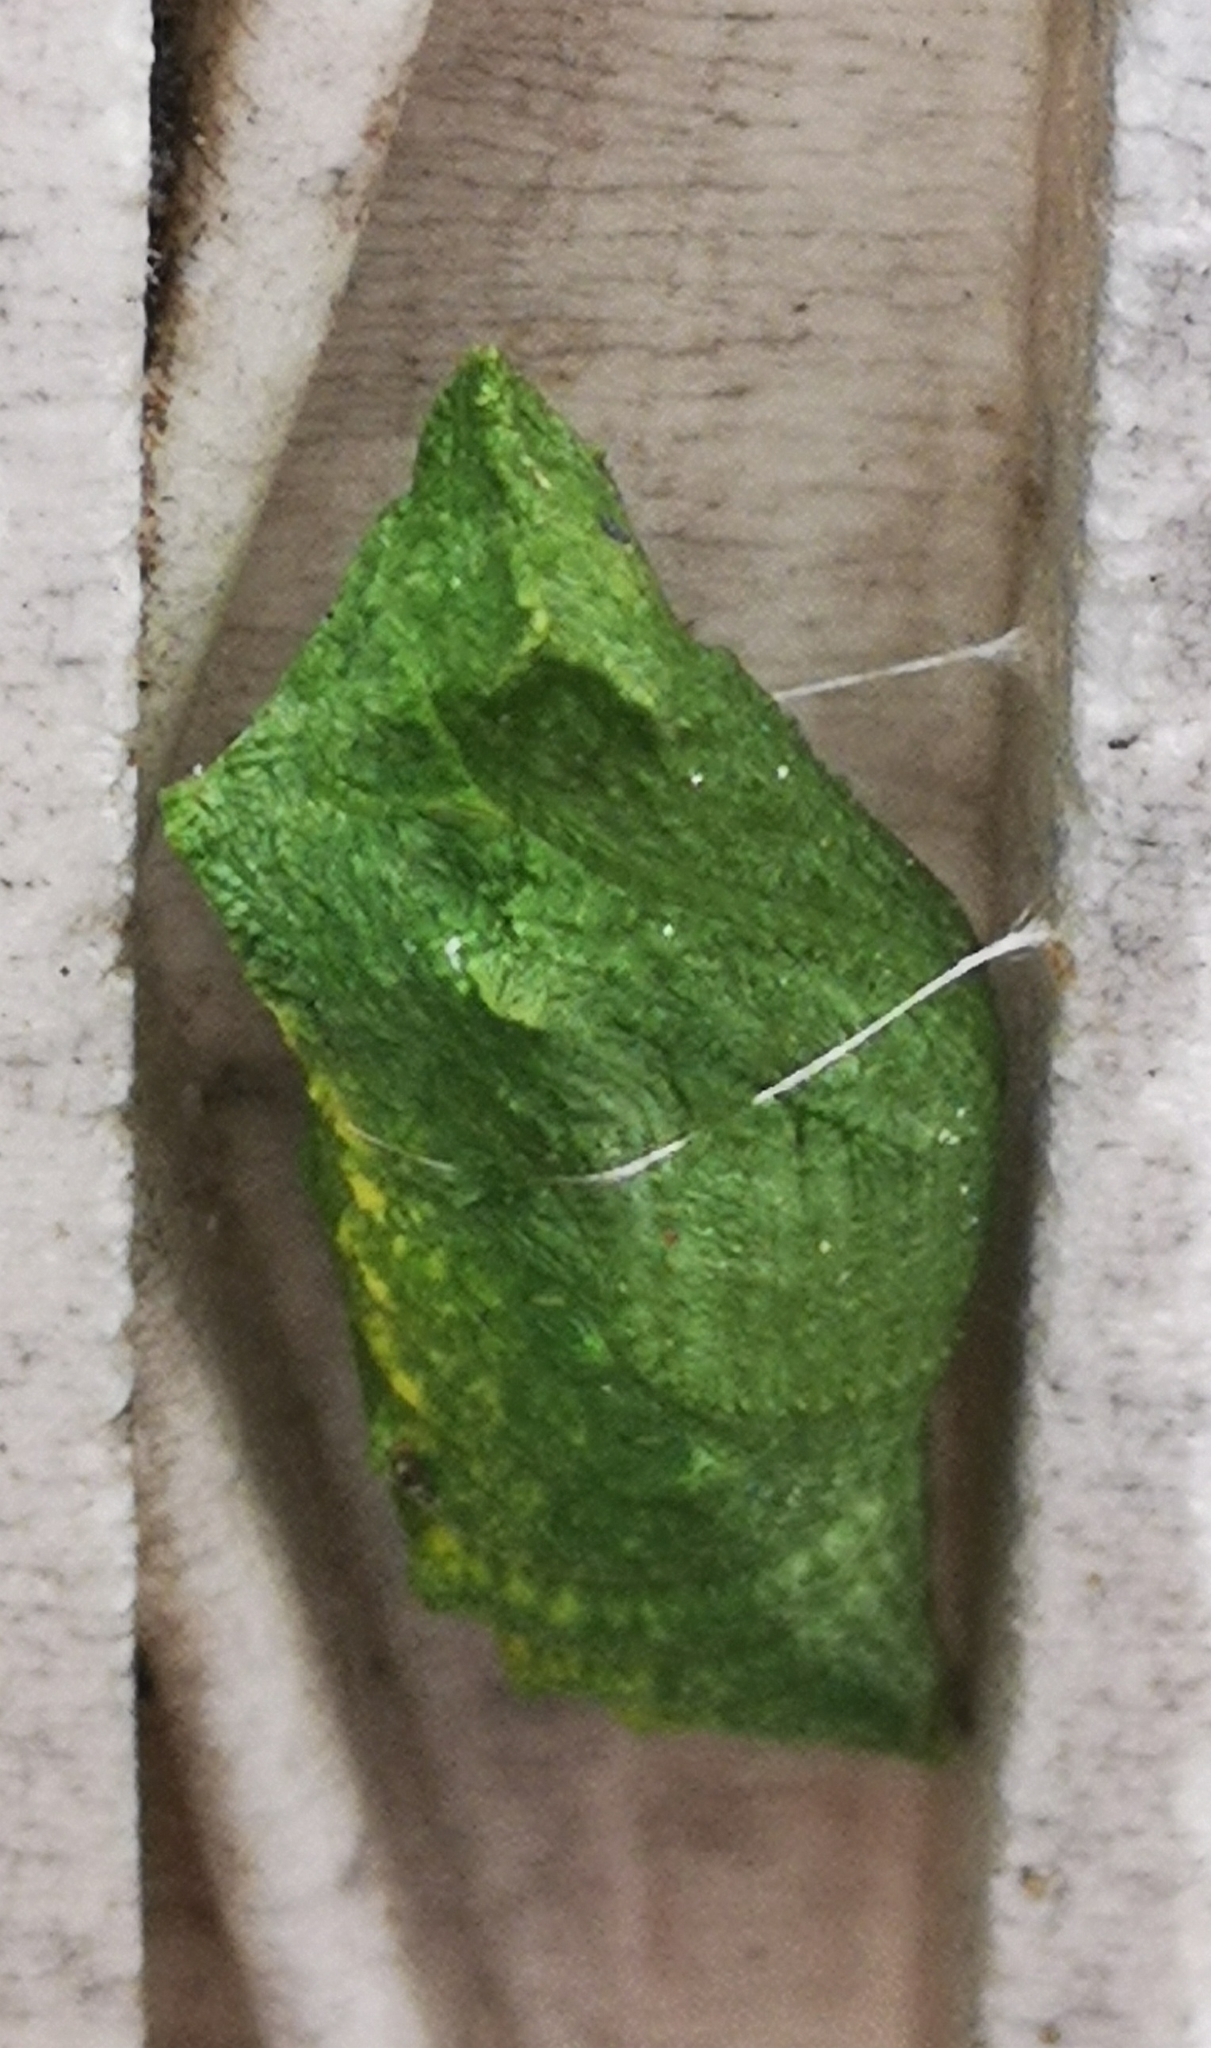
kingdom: Animalia
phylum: Arthropoda
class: Insecta
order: Lepidoptera
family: Papilionidae
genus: Papilio
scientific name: Papilio machaon
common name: Swallowtail
